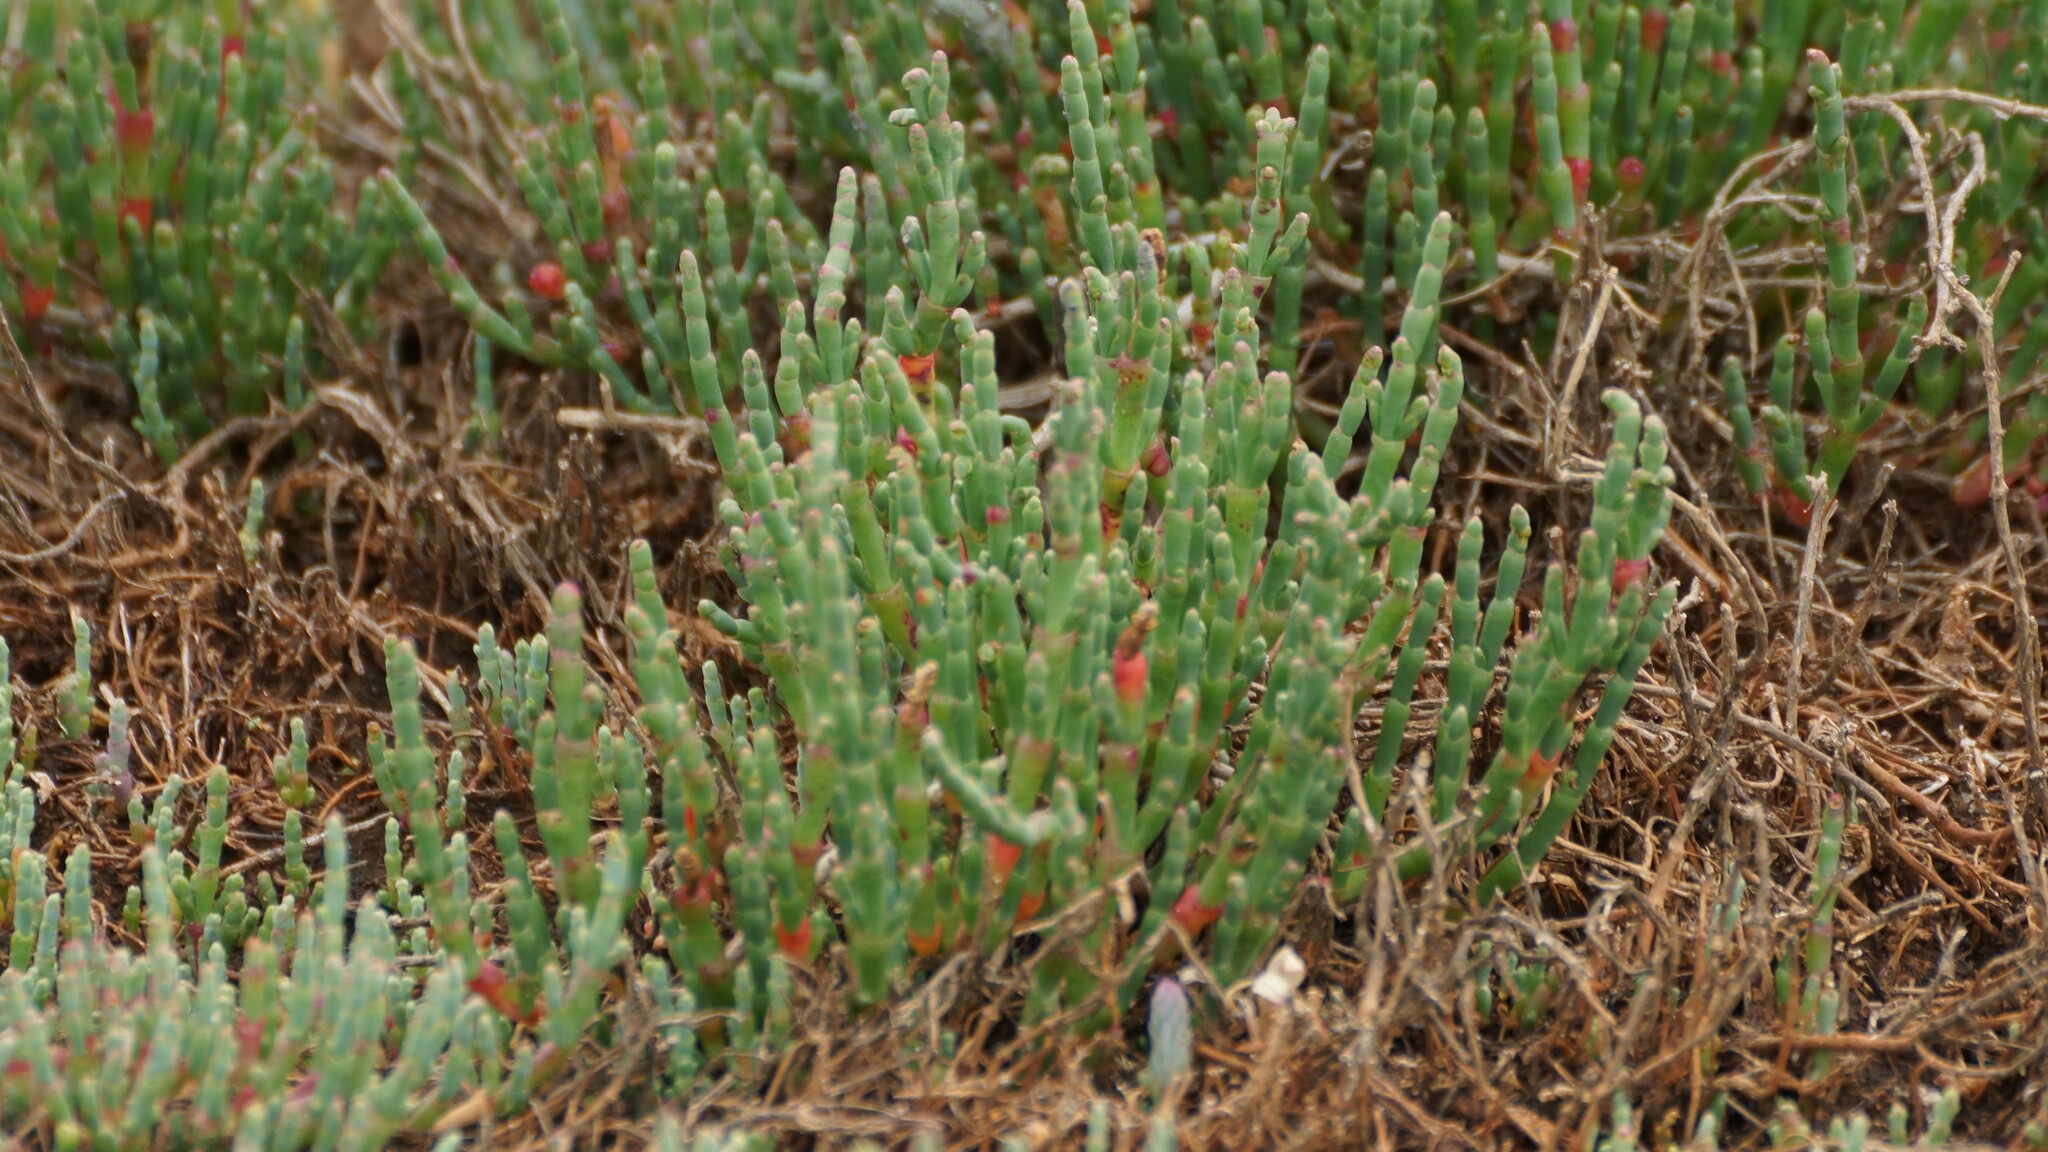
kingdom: Plantae
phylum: Tracheophyta
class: Magnoliopsida
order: Caryophyllales
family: Amaranthaceae
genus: Salicornia
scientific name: Salicornia quinqueflora
